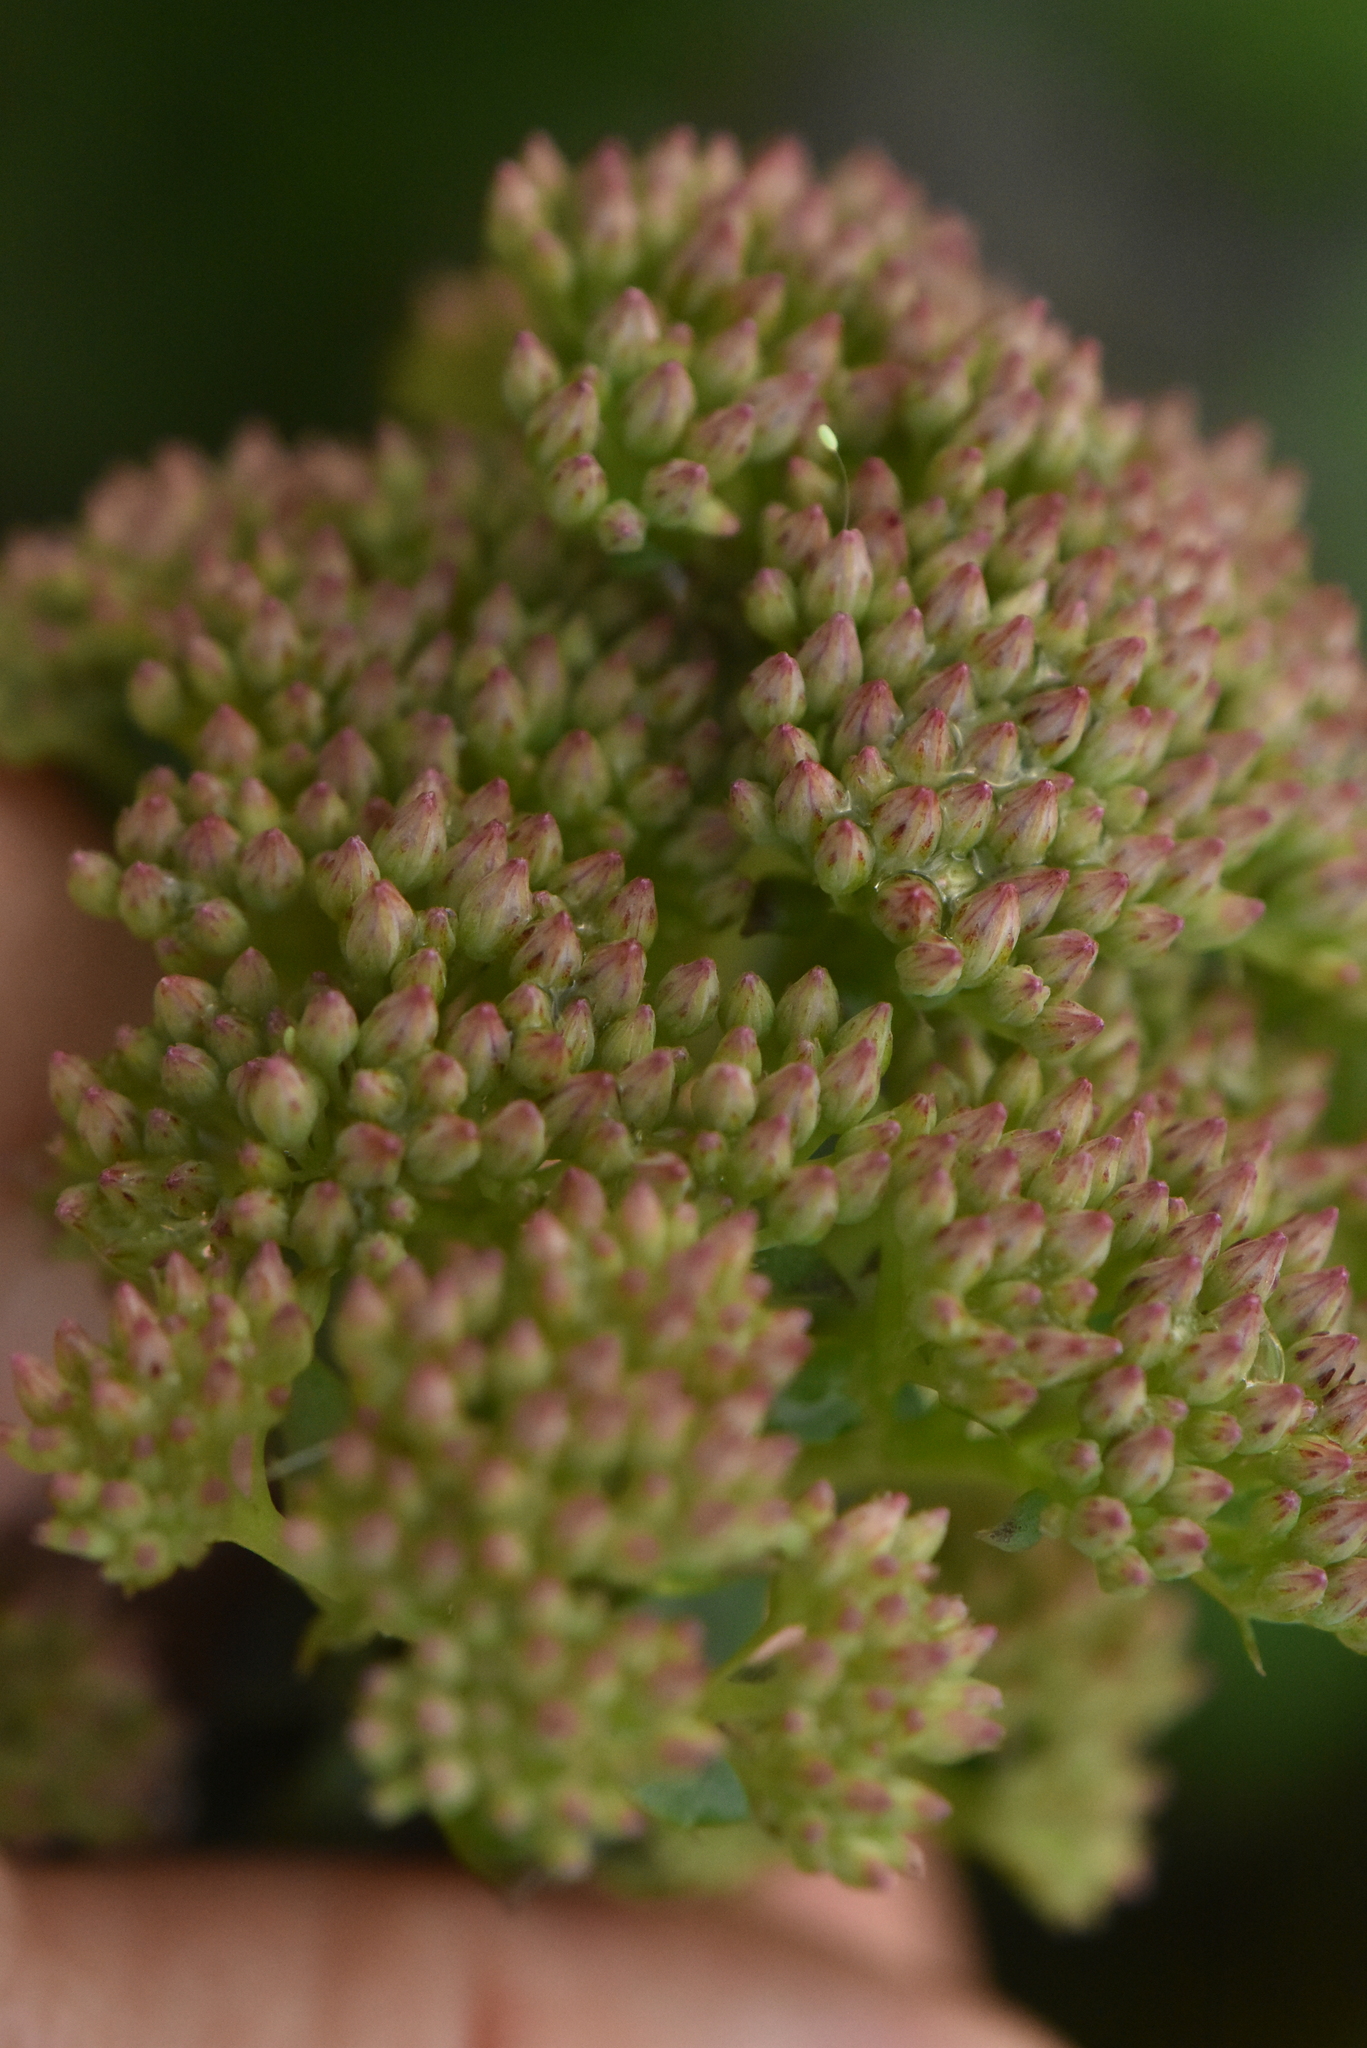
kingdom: Plantae
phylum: Tracheophyta
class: Magnoliopsida
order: Saxifragales
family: Crassulaceae
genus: Hylotelephium
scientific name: Hylotelephium telephium
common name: Live-forever
